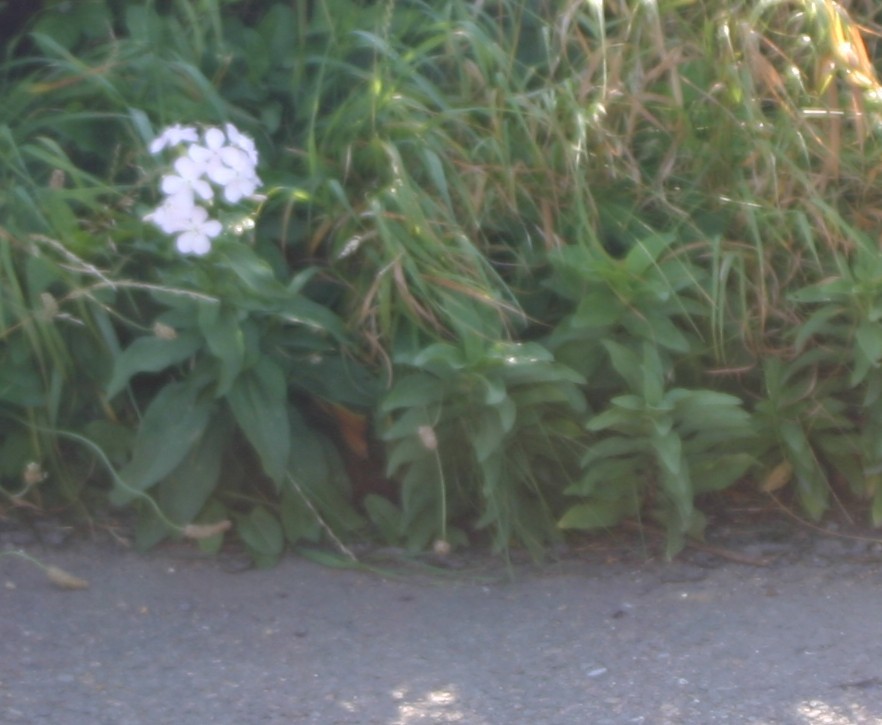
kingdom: Plantae
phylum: Tracheophyta
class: Magnoliopsida
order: Caryophyllales
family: Caryophyllaceae
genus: Saponaria
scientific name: Saponaria officinalis
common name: Soapwort
